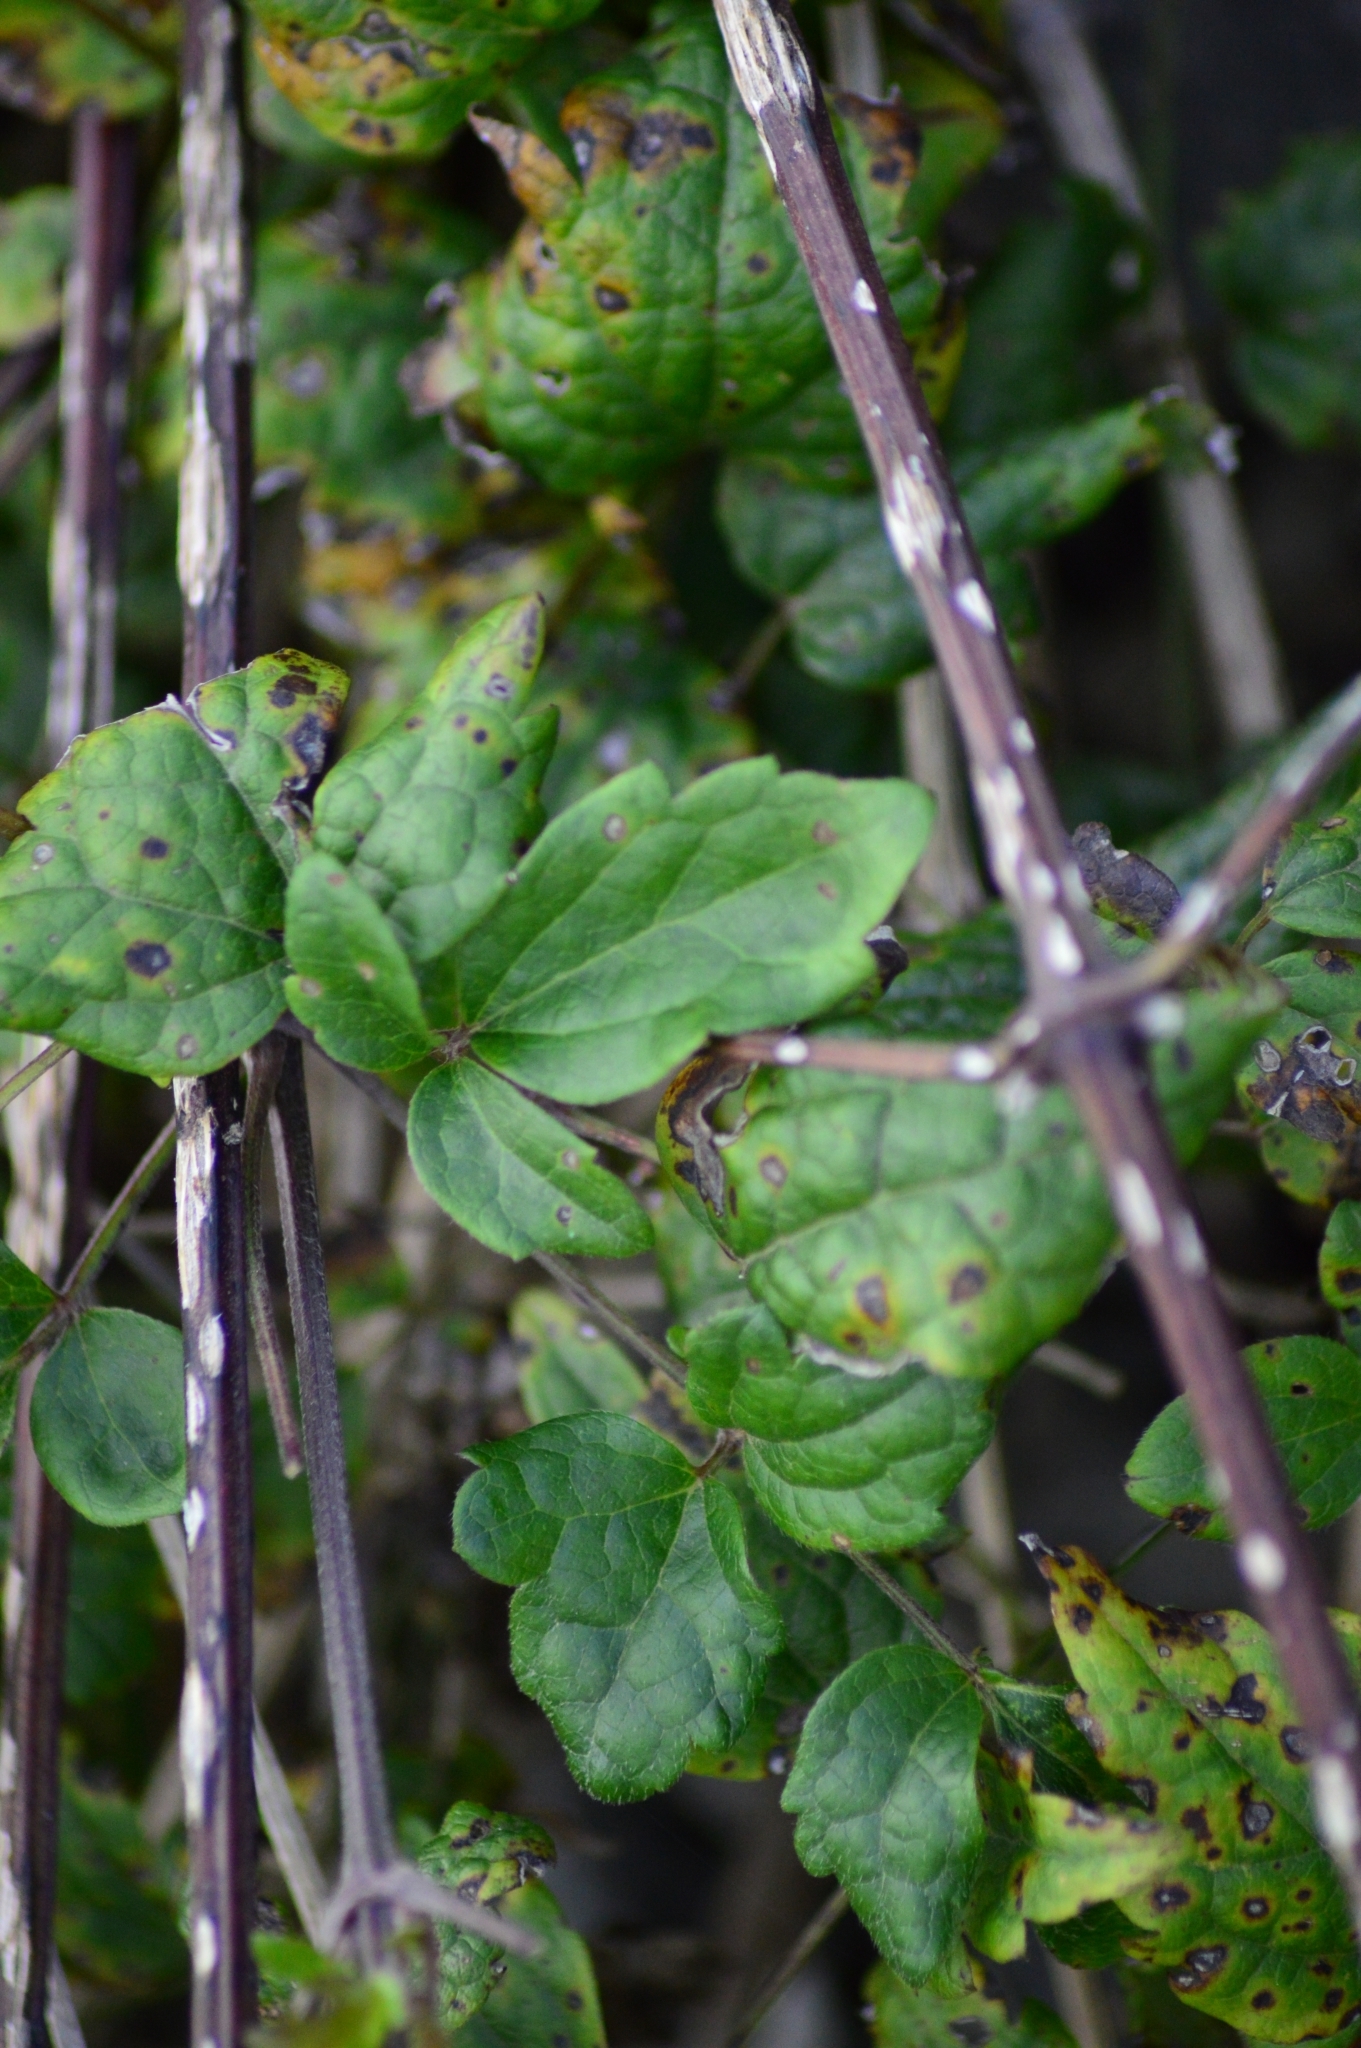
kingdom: Plantae
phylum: Tracheophyta
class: Magnoliopsida
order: Ranunculales
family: Ranunculaceae
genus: Clematis
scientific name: Clematis vitalba
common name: Evergreen clematis
